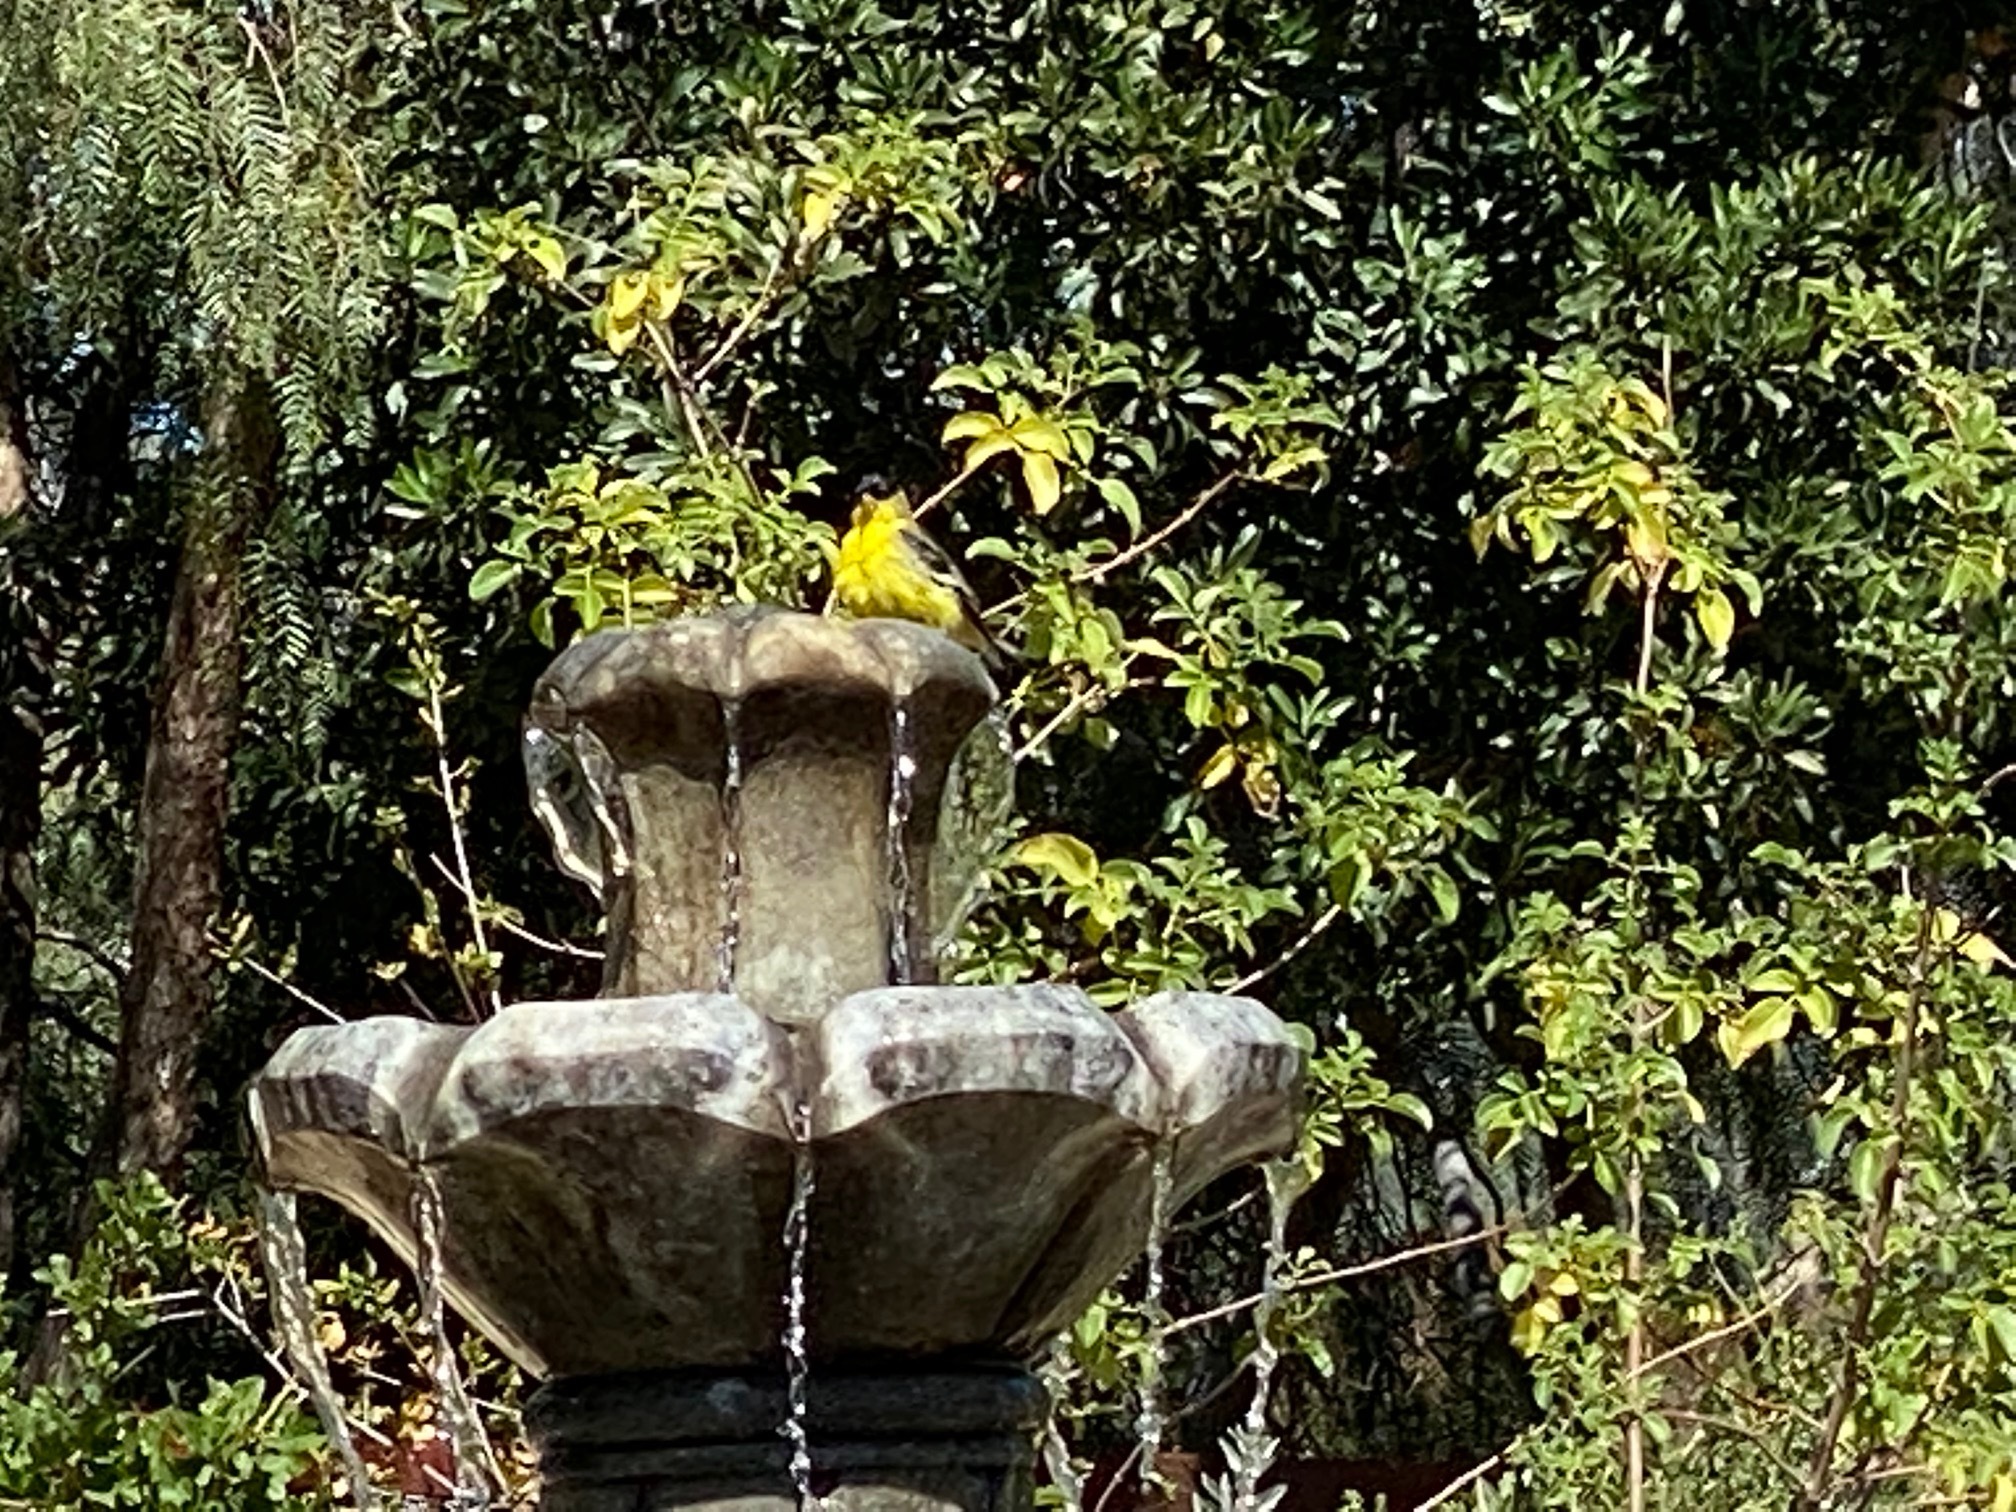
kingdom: Animalia
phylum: Chordata
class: Aves
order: Passeriformes
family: Fringillidae
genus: Spinus
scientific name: Spinus psaltria
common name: Lesser goldfinch
